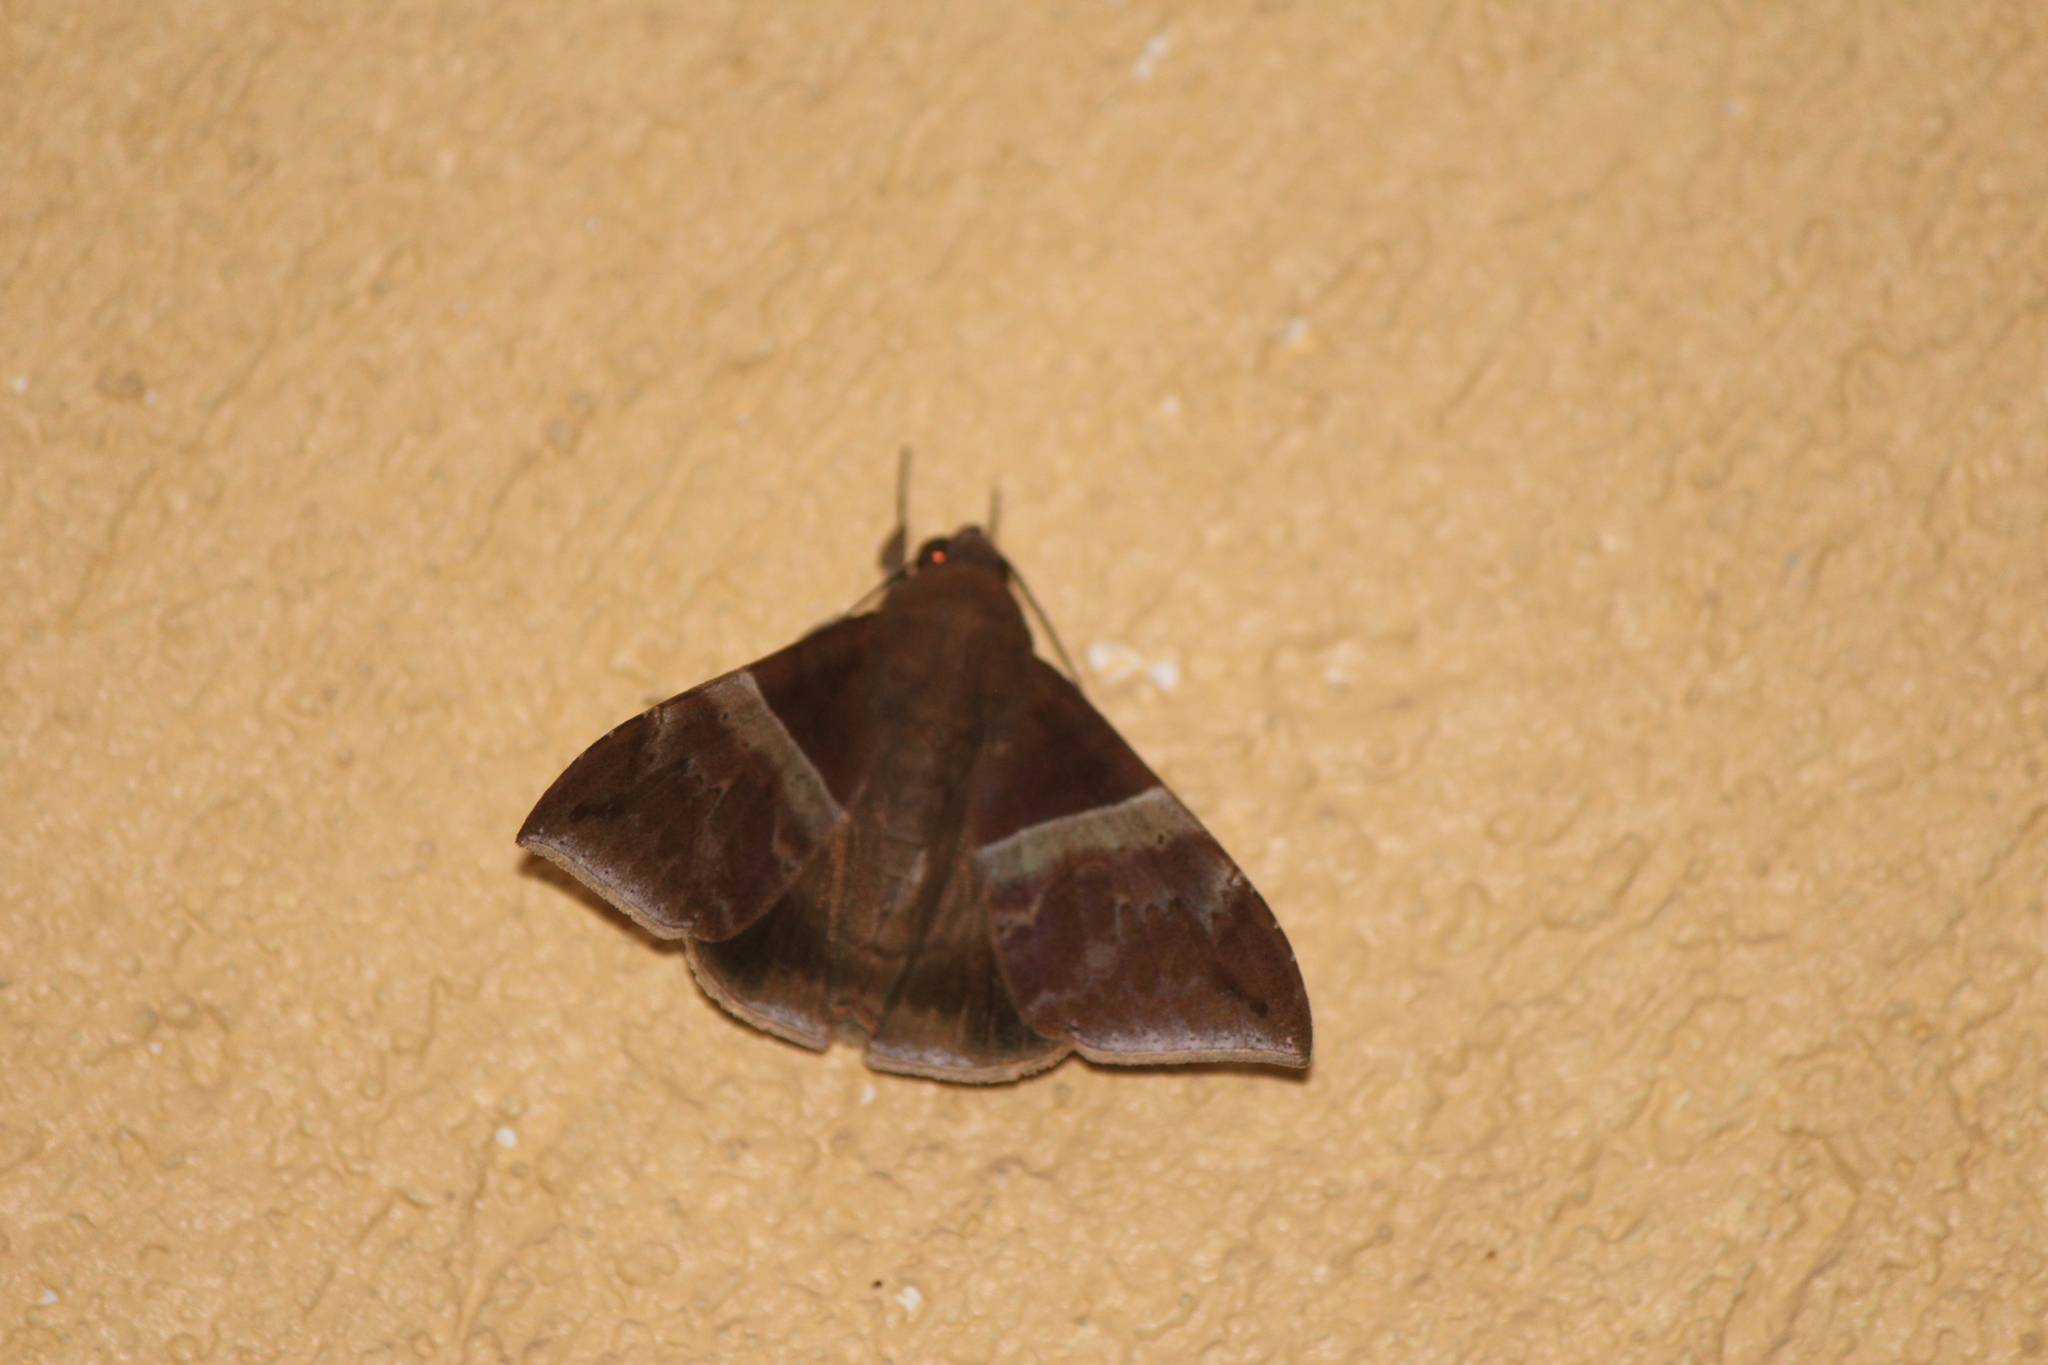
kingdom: Animalia
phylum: Arthropoda
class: Insecta
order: Lepidoptera
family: Erebidae
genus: Ophisma
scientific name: Ophisma tropicalis
